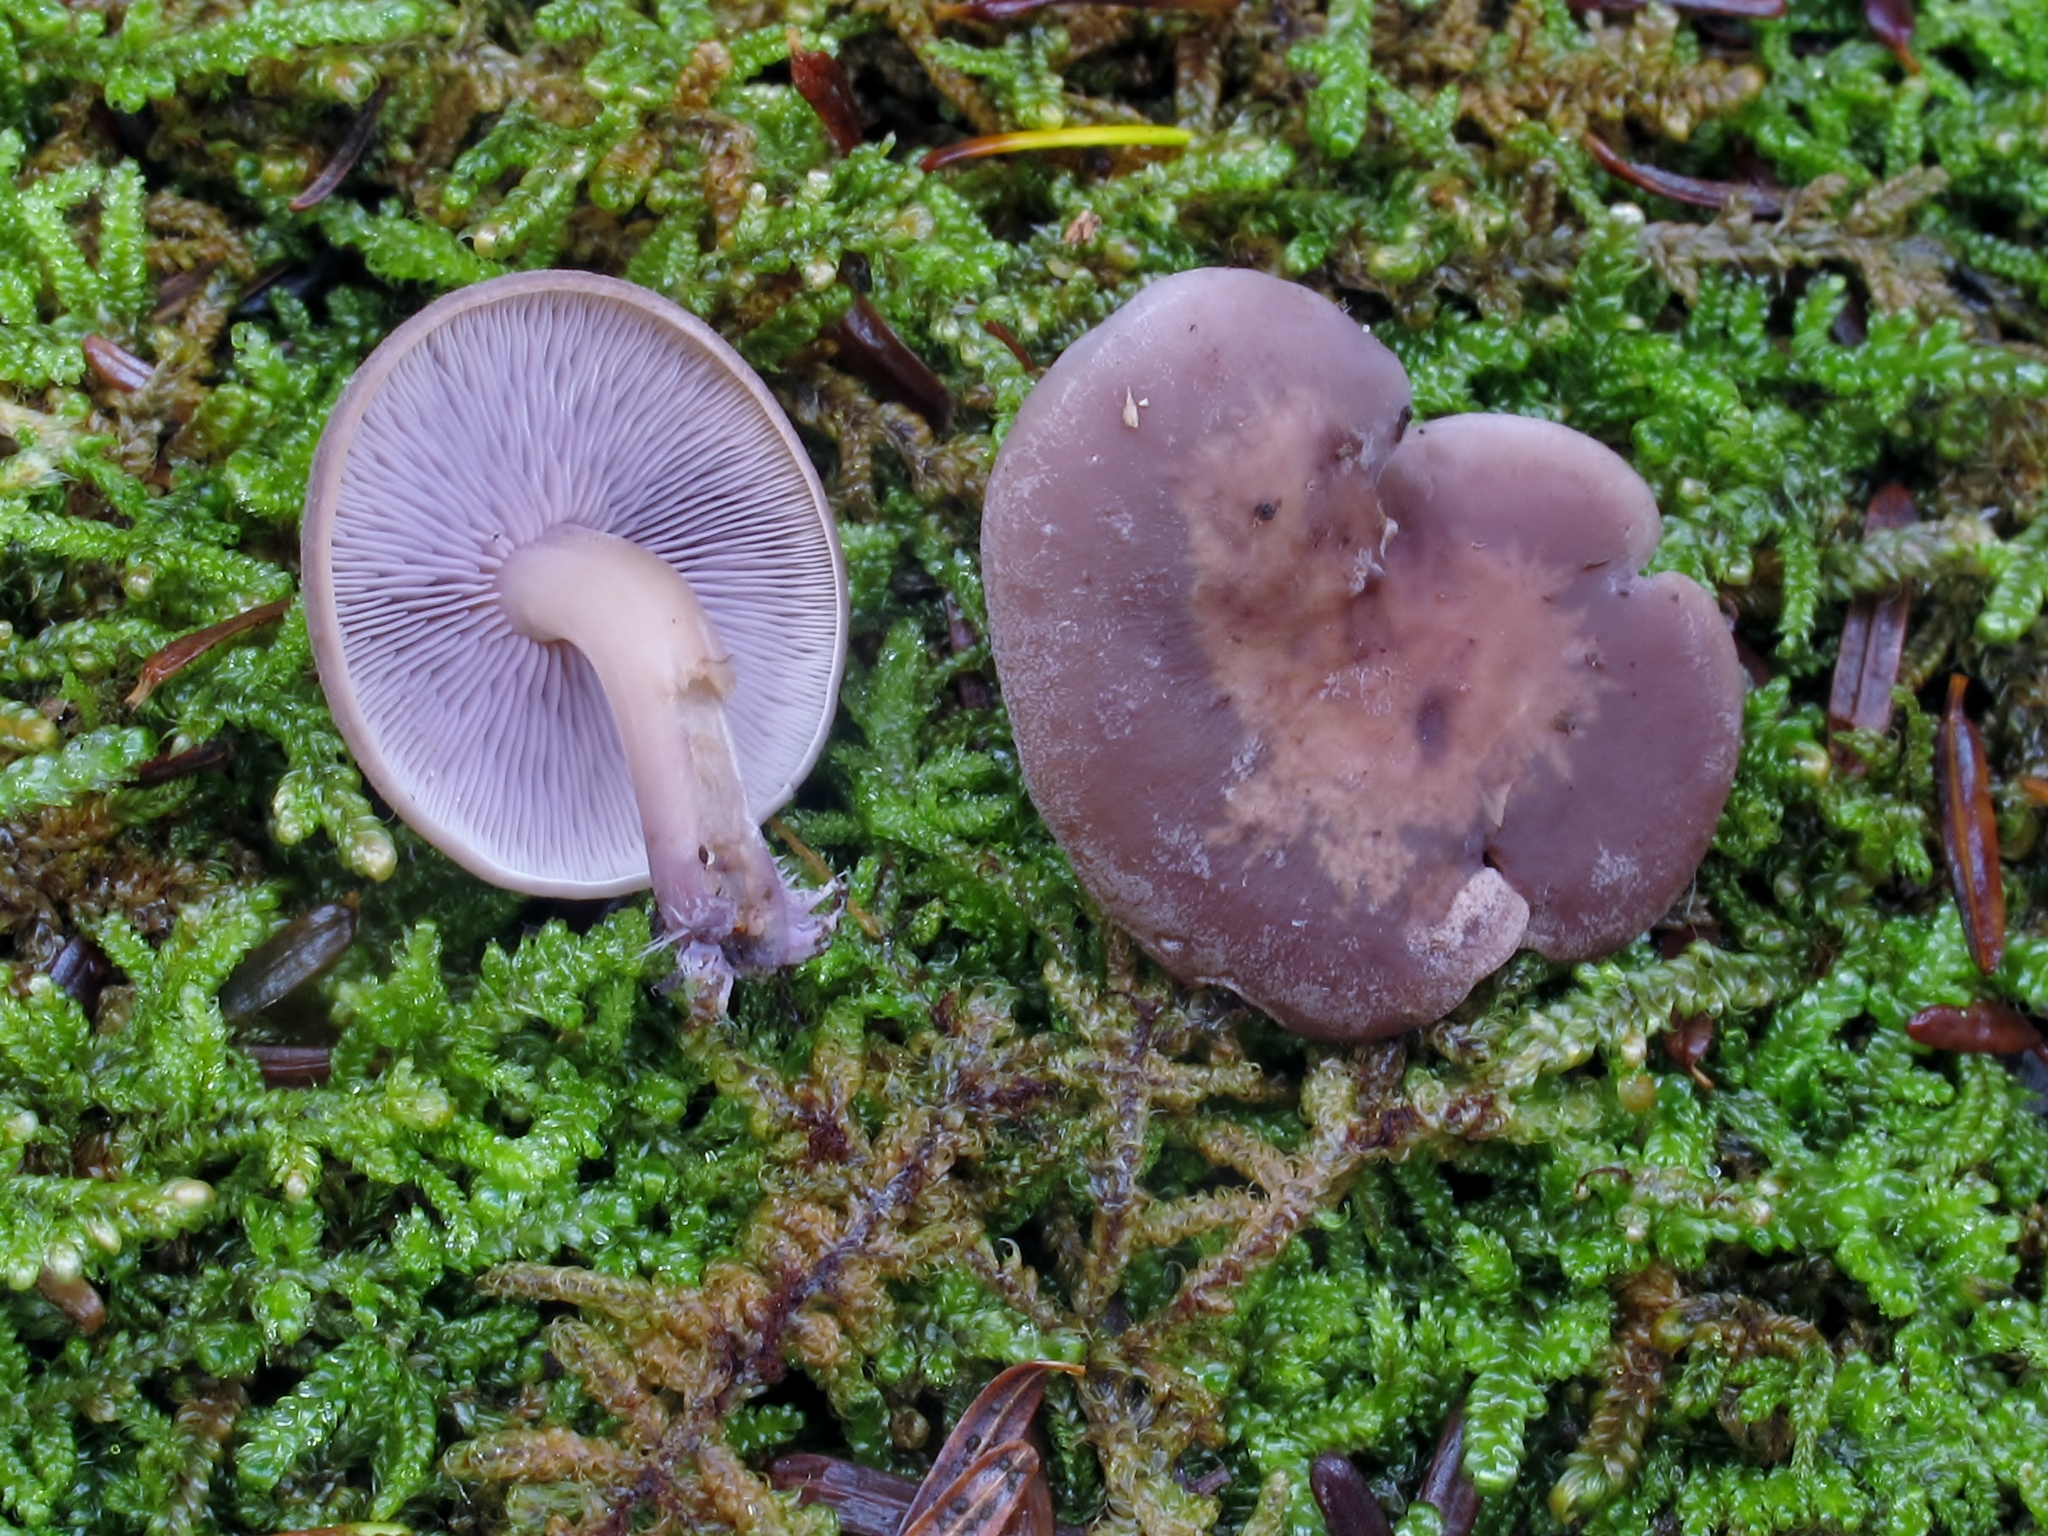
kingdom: Fungi
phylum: Basidiomycota
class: Agaricomycetes
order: Agaricales
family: Marasmiaceae
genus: Baeospora
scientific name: Baeospora myriadophylla
